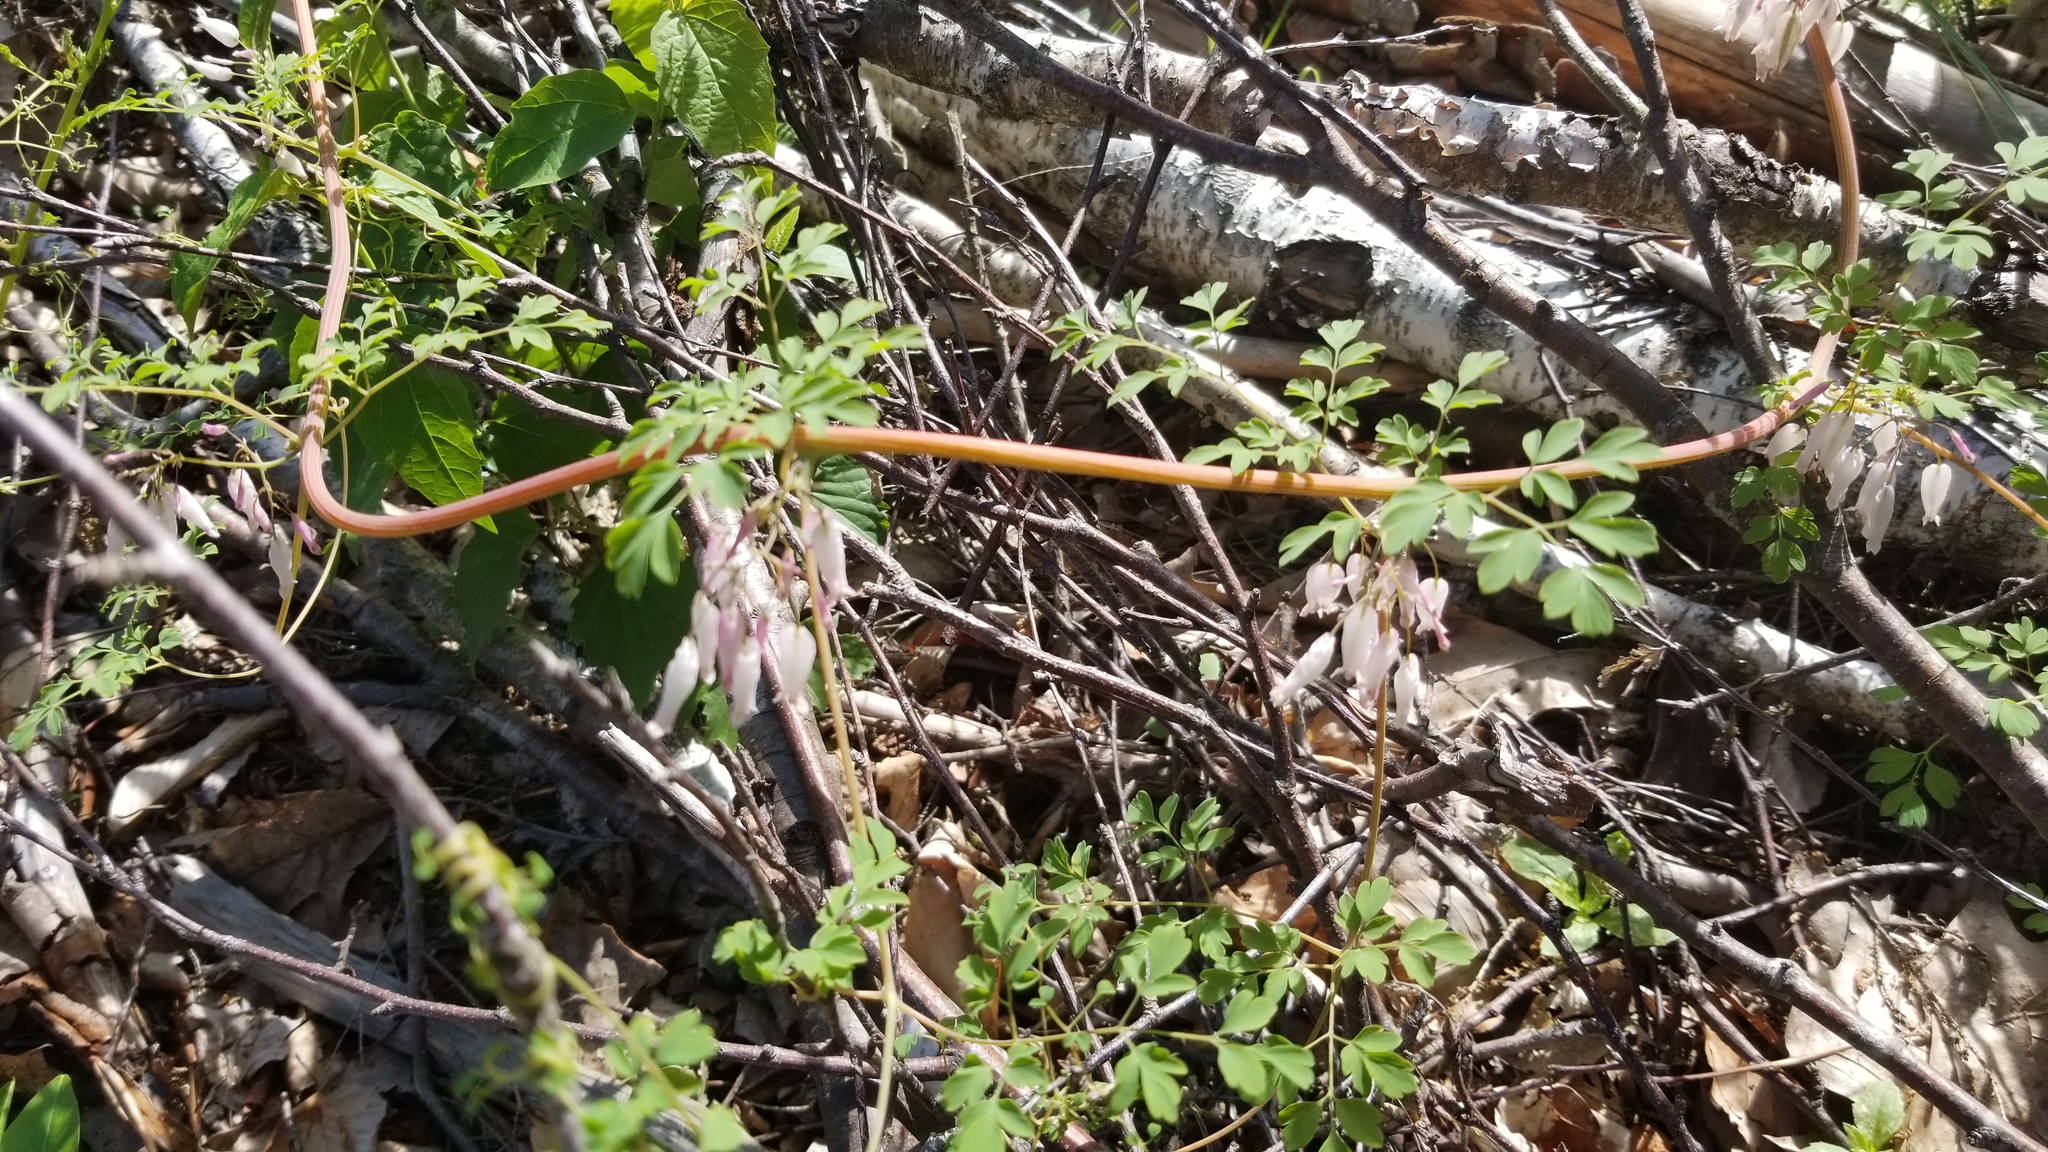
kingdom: Plantae
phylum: Tracheophyta
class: Magnoliopsida
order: Ranunculales
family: Papaveraceae
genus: Adlumia
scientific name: Adlumia fungosa
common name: Mountain-fringe
